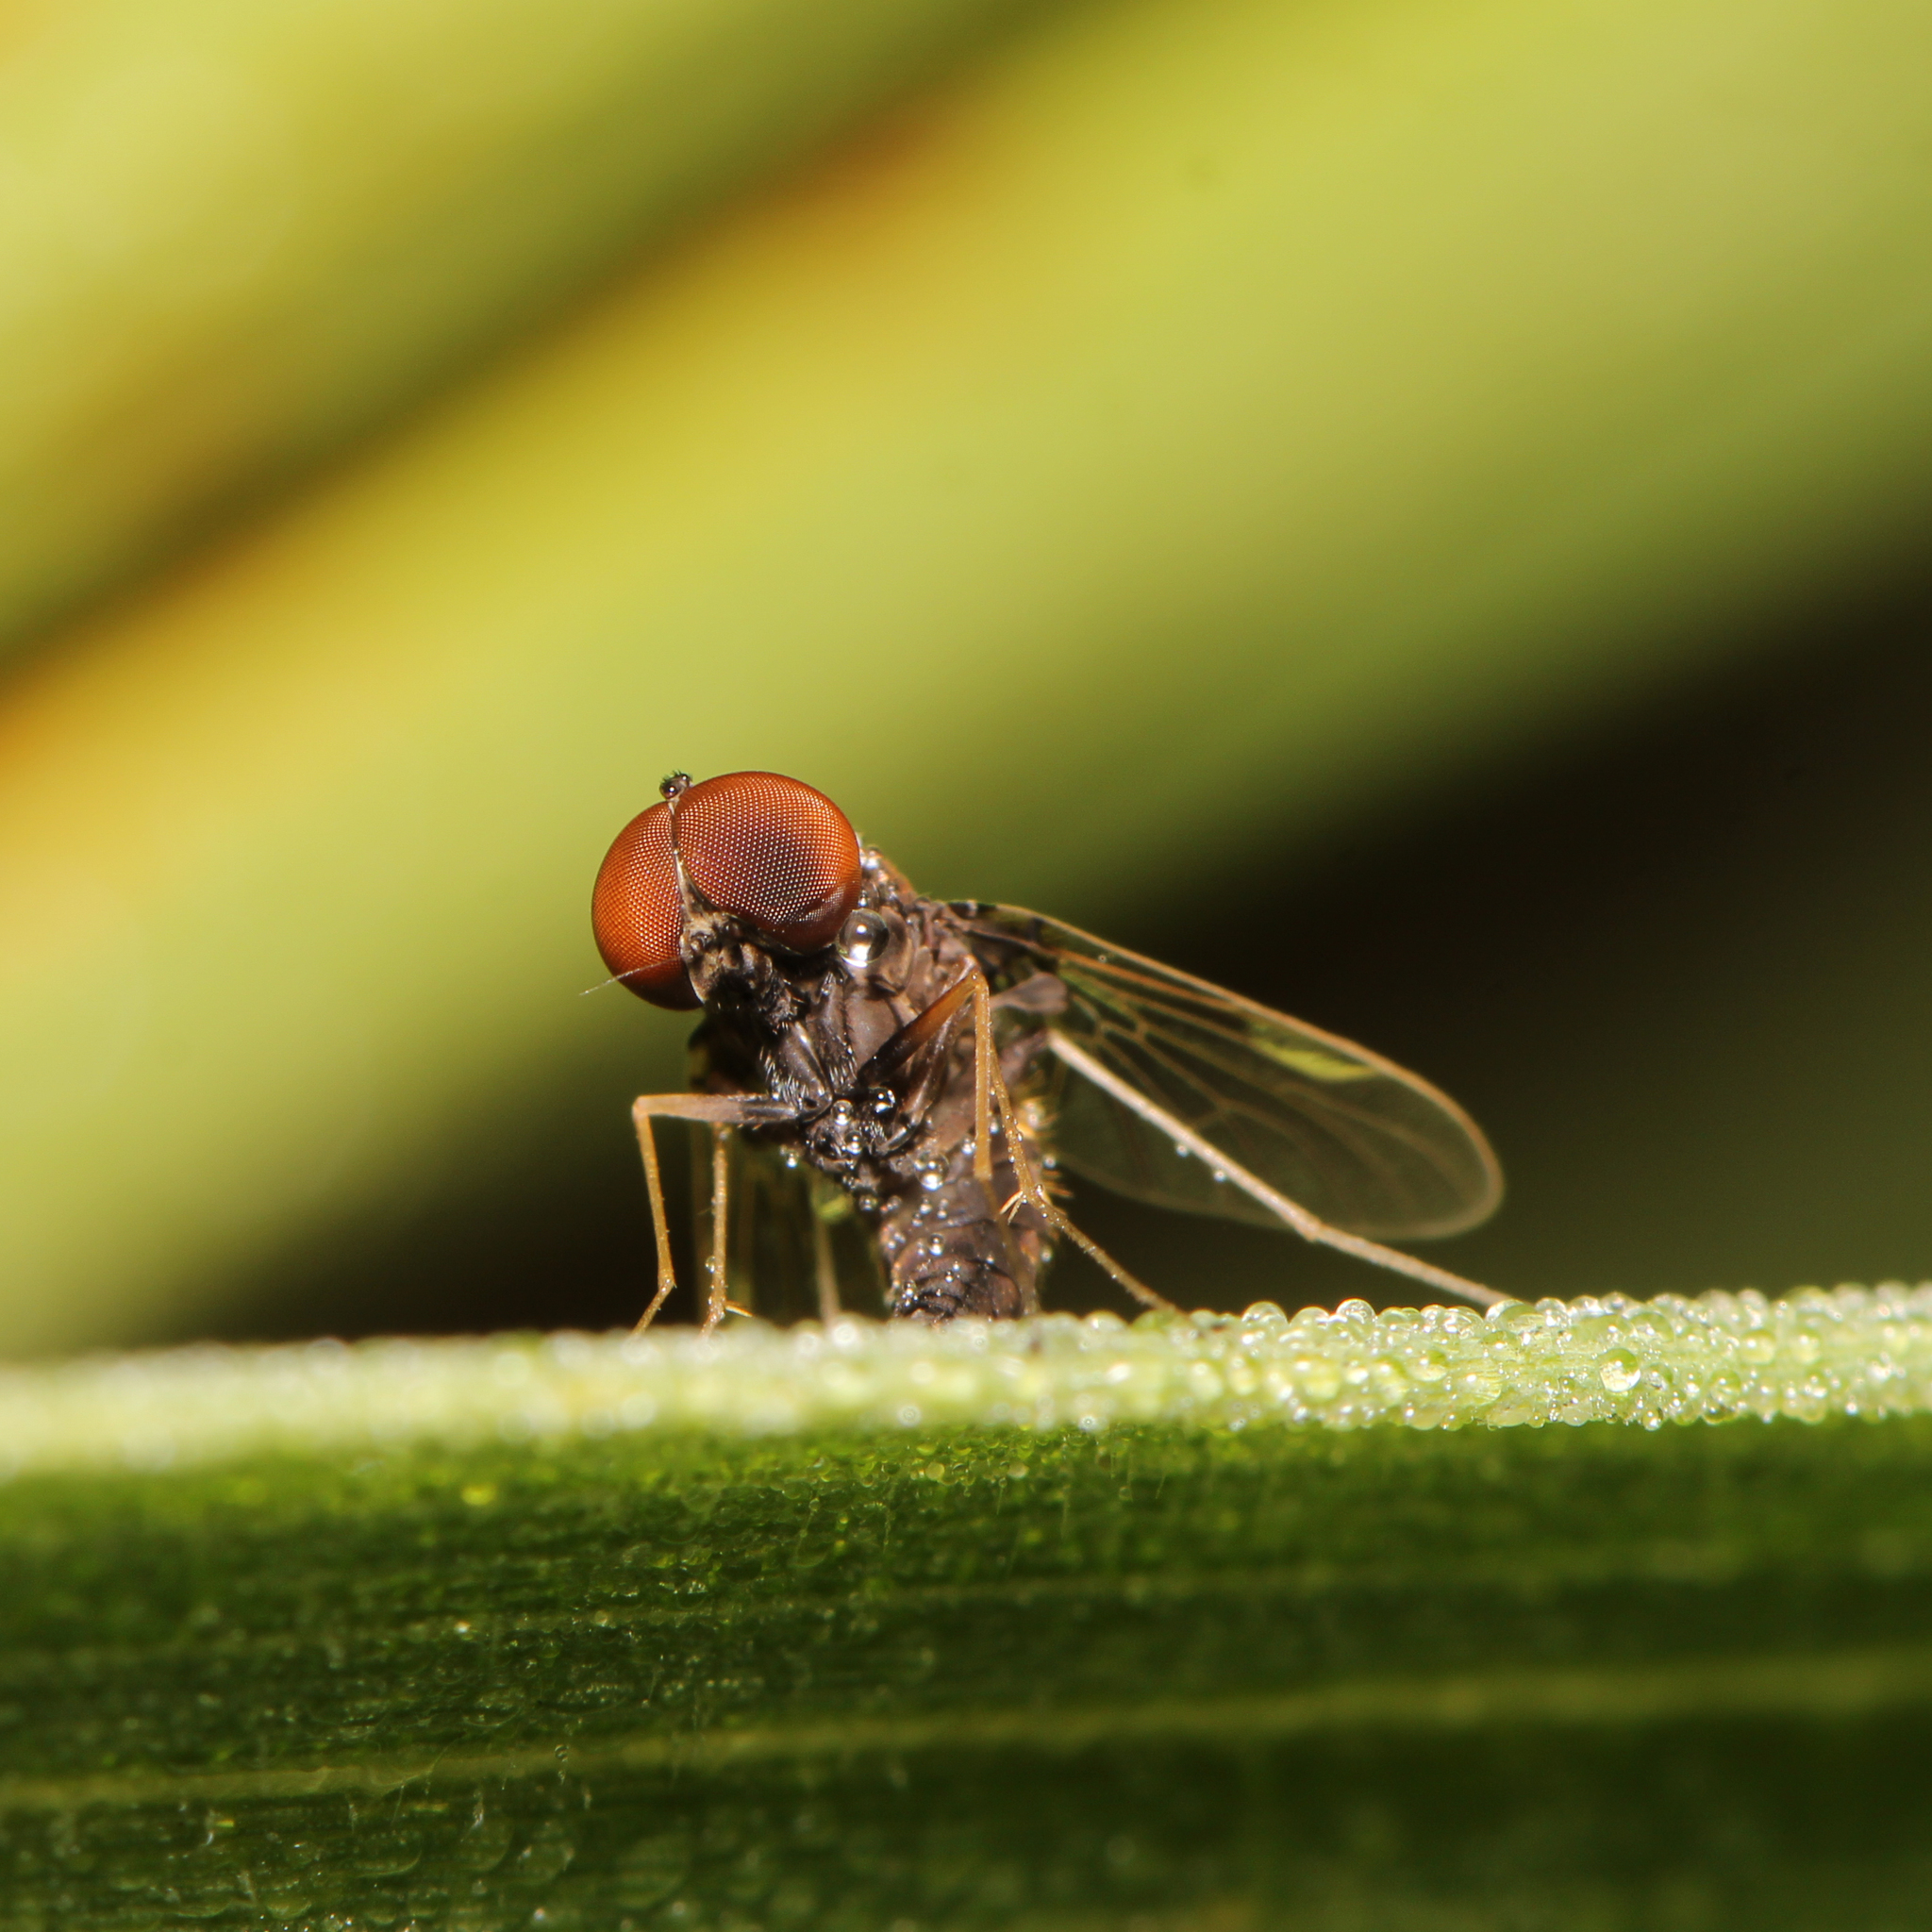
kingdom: Animalia
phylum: Arthropoda
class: Insecta
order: Diptera
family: Rhagionidae
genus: Chrysopilus
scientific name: Chrysopilus basilaris
